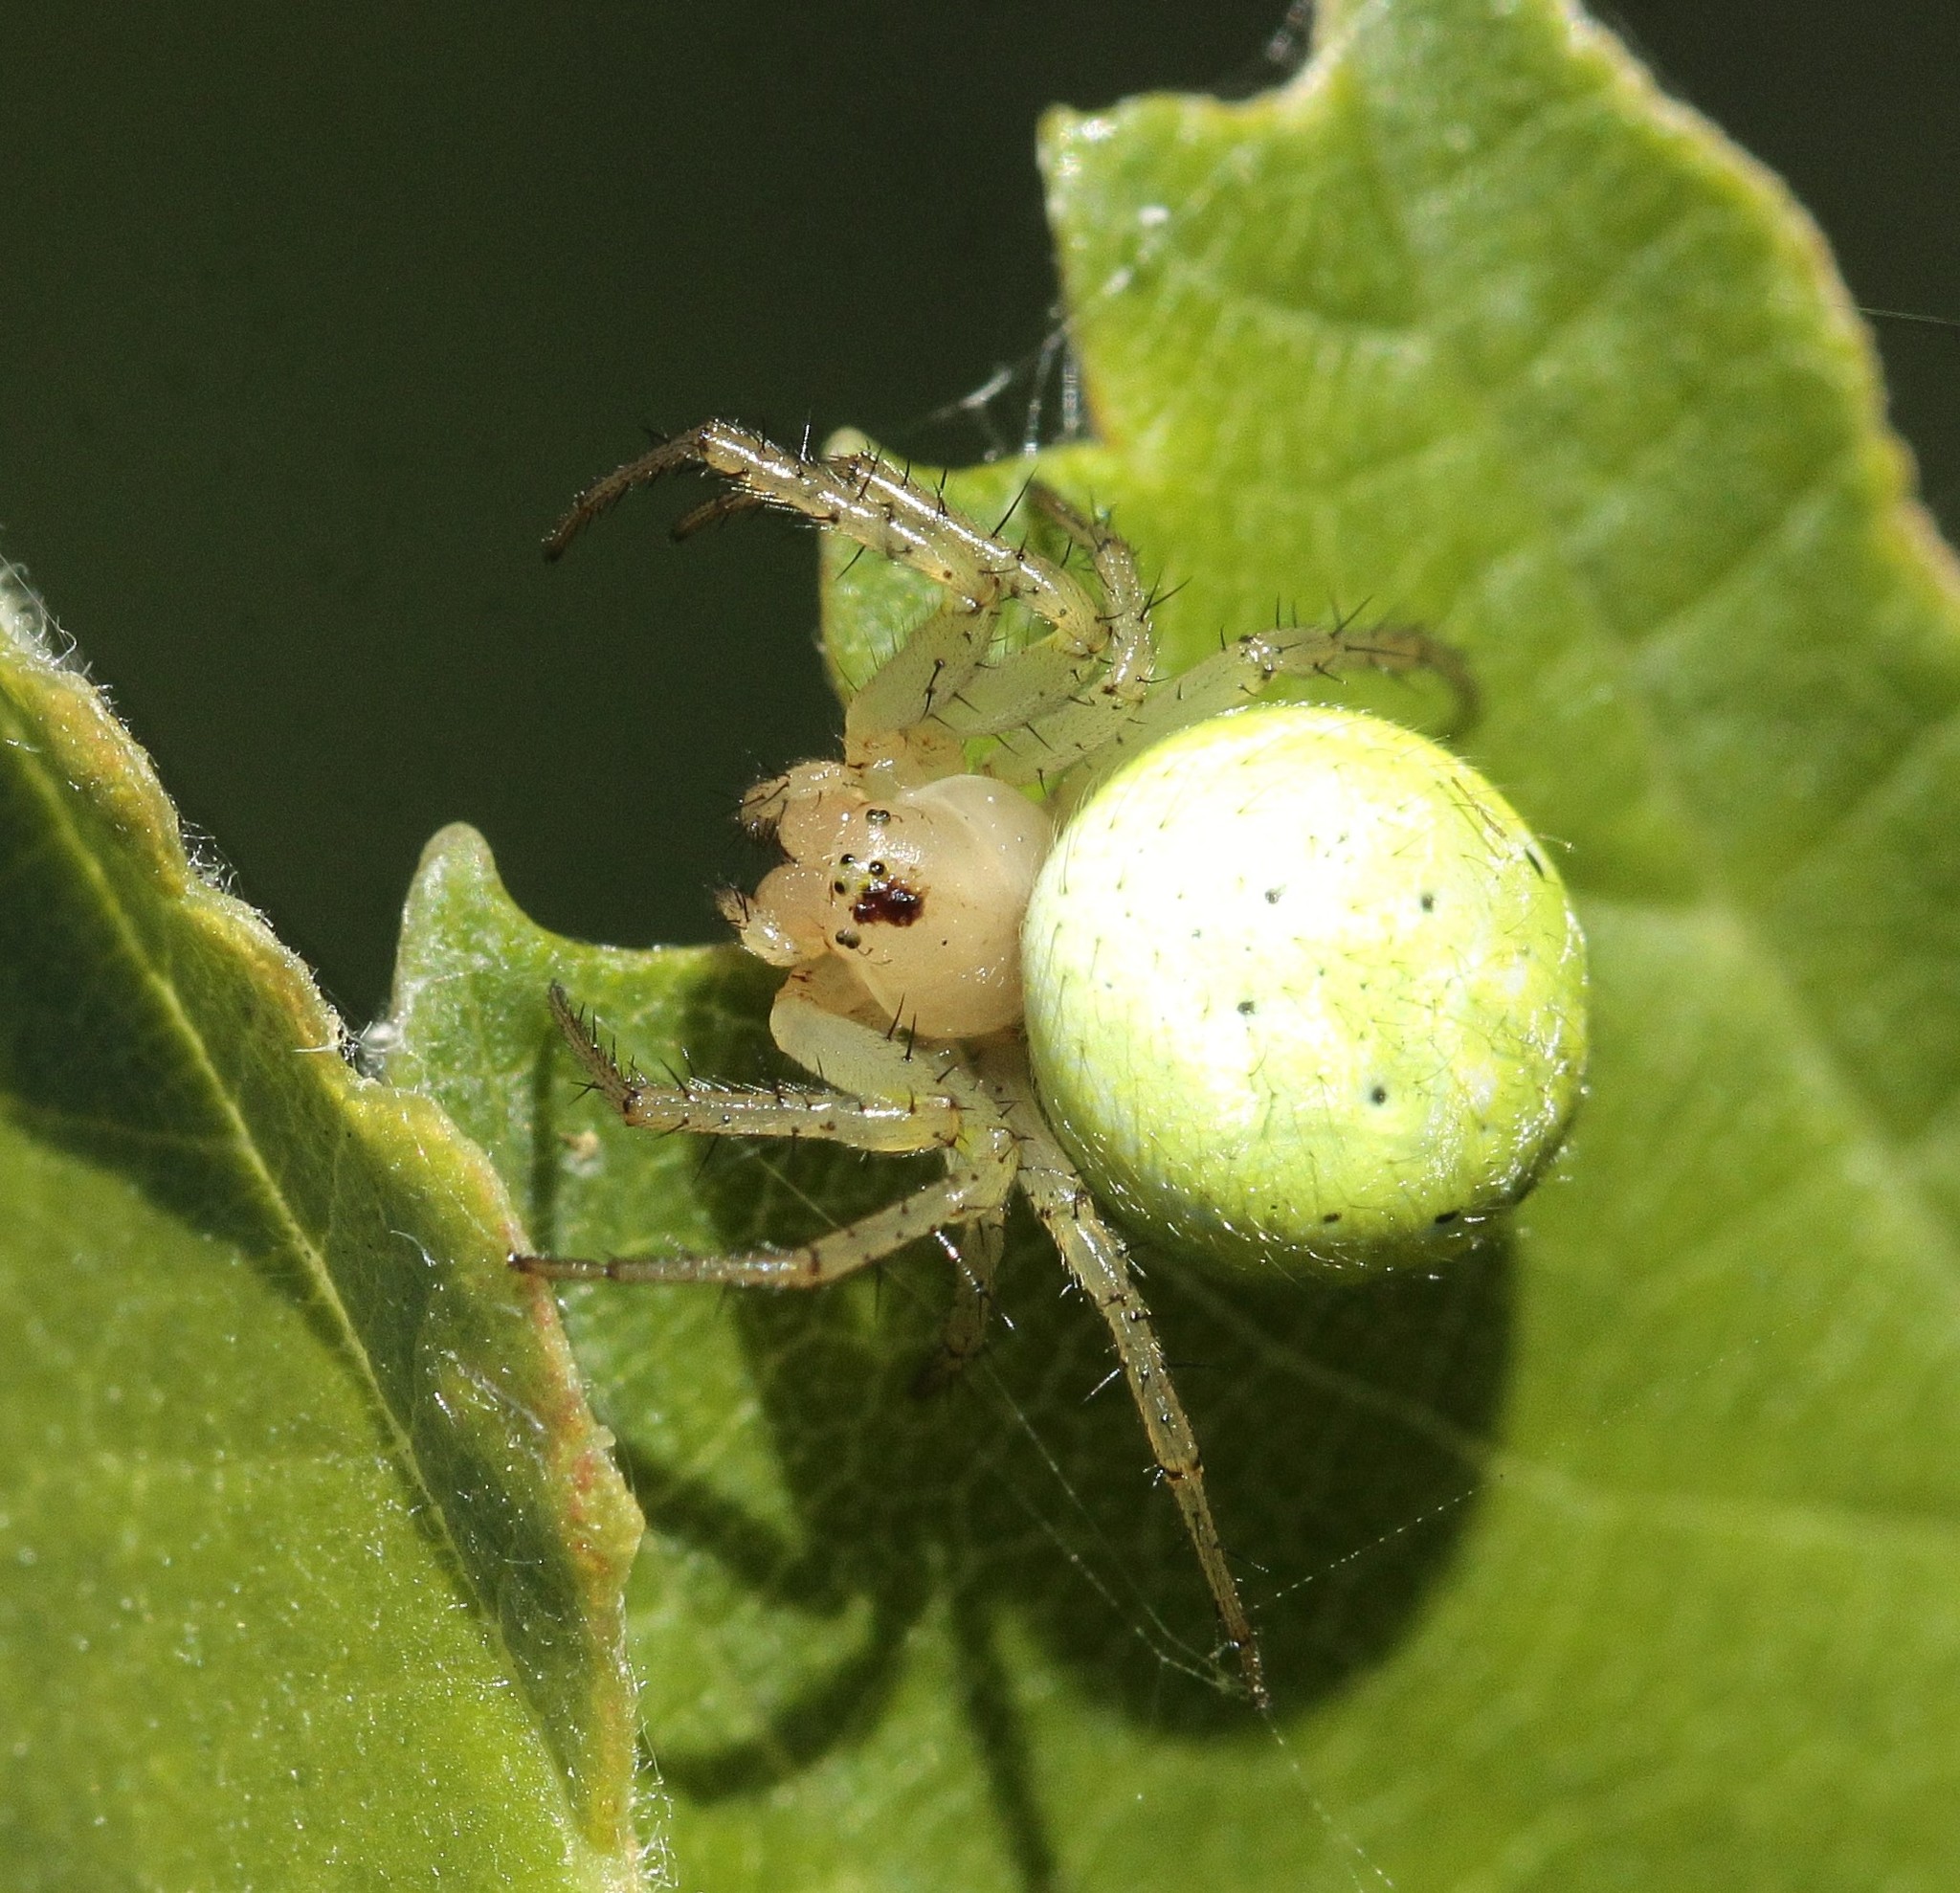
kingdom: Animalia
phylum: Arthropoda
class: Arachnida
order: Araneae
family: Araneidae
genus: Araniella
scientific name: Araniella opisthographa
